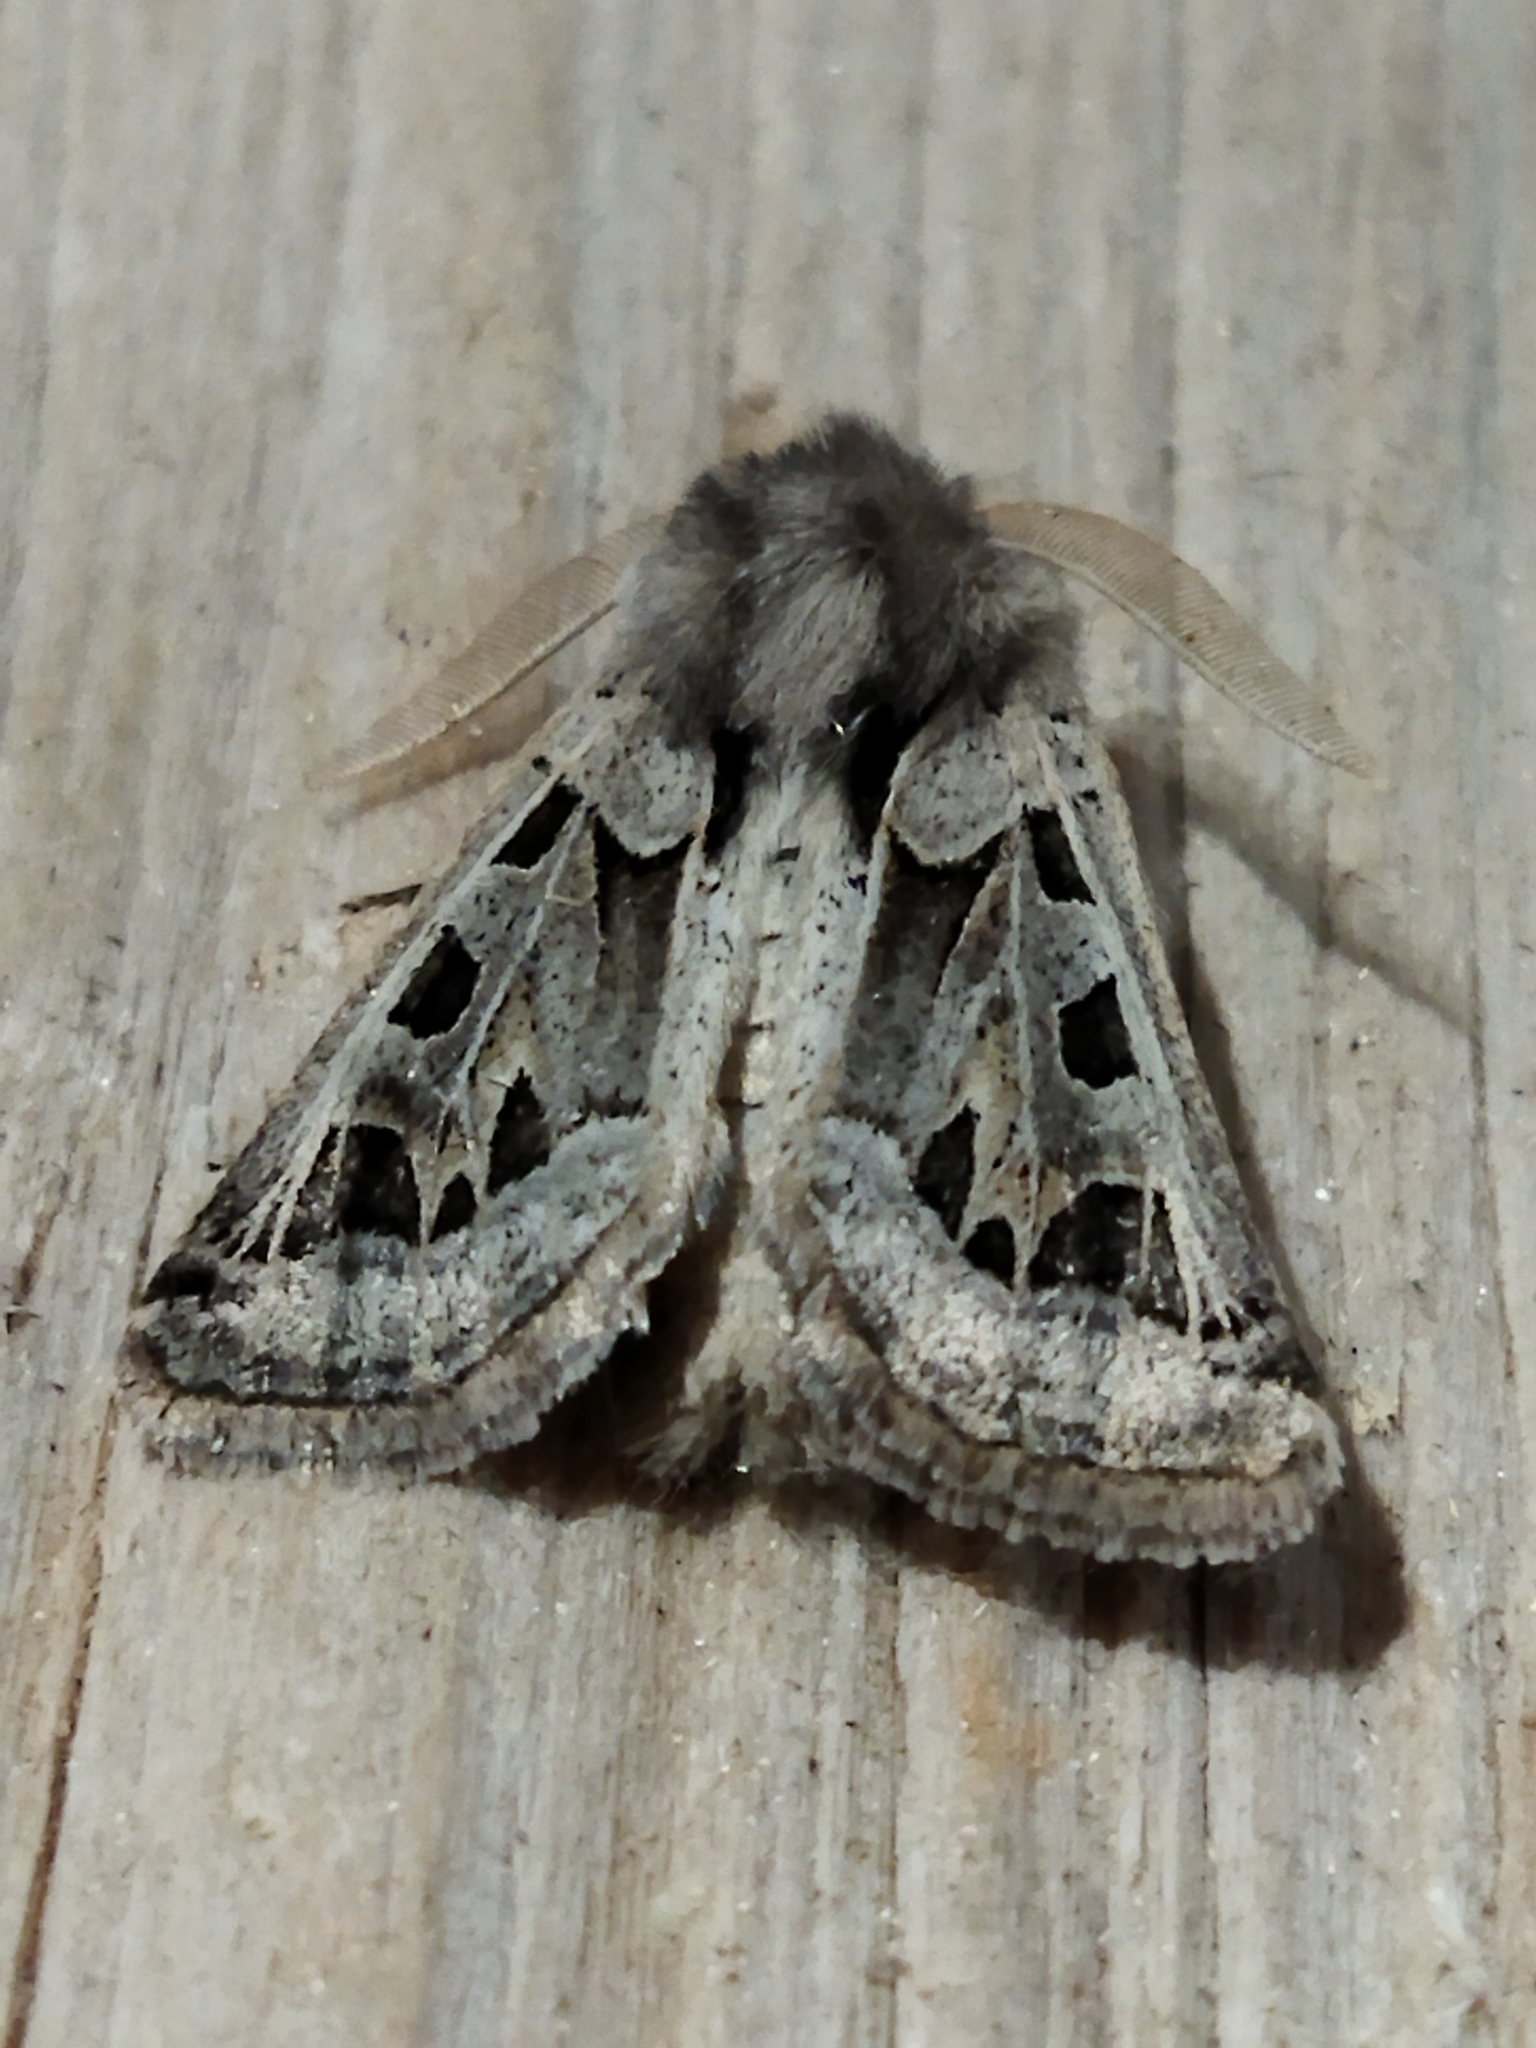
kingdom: Animalia
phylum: Arthropoda
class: Insecta
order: Lepidoptera
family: Noctuidae
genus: Episema
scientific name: Episema glaucina
